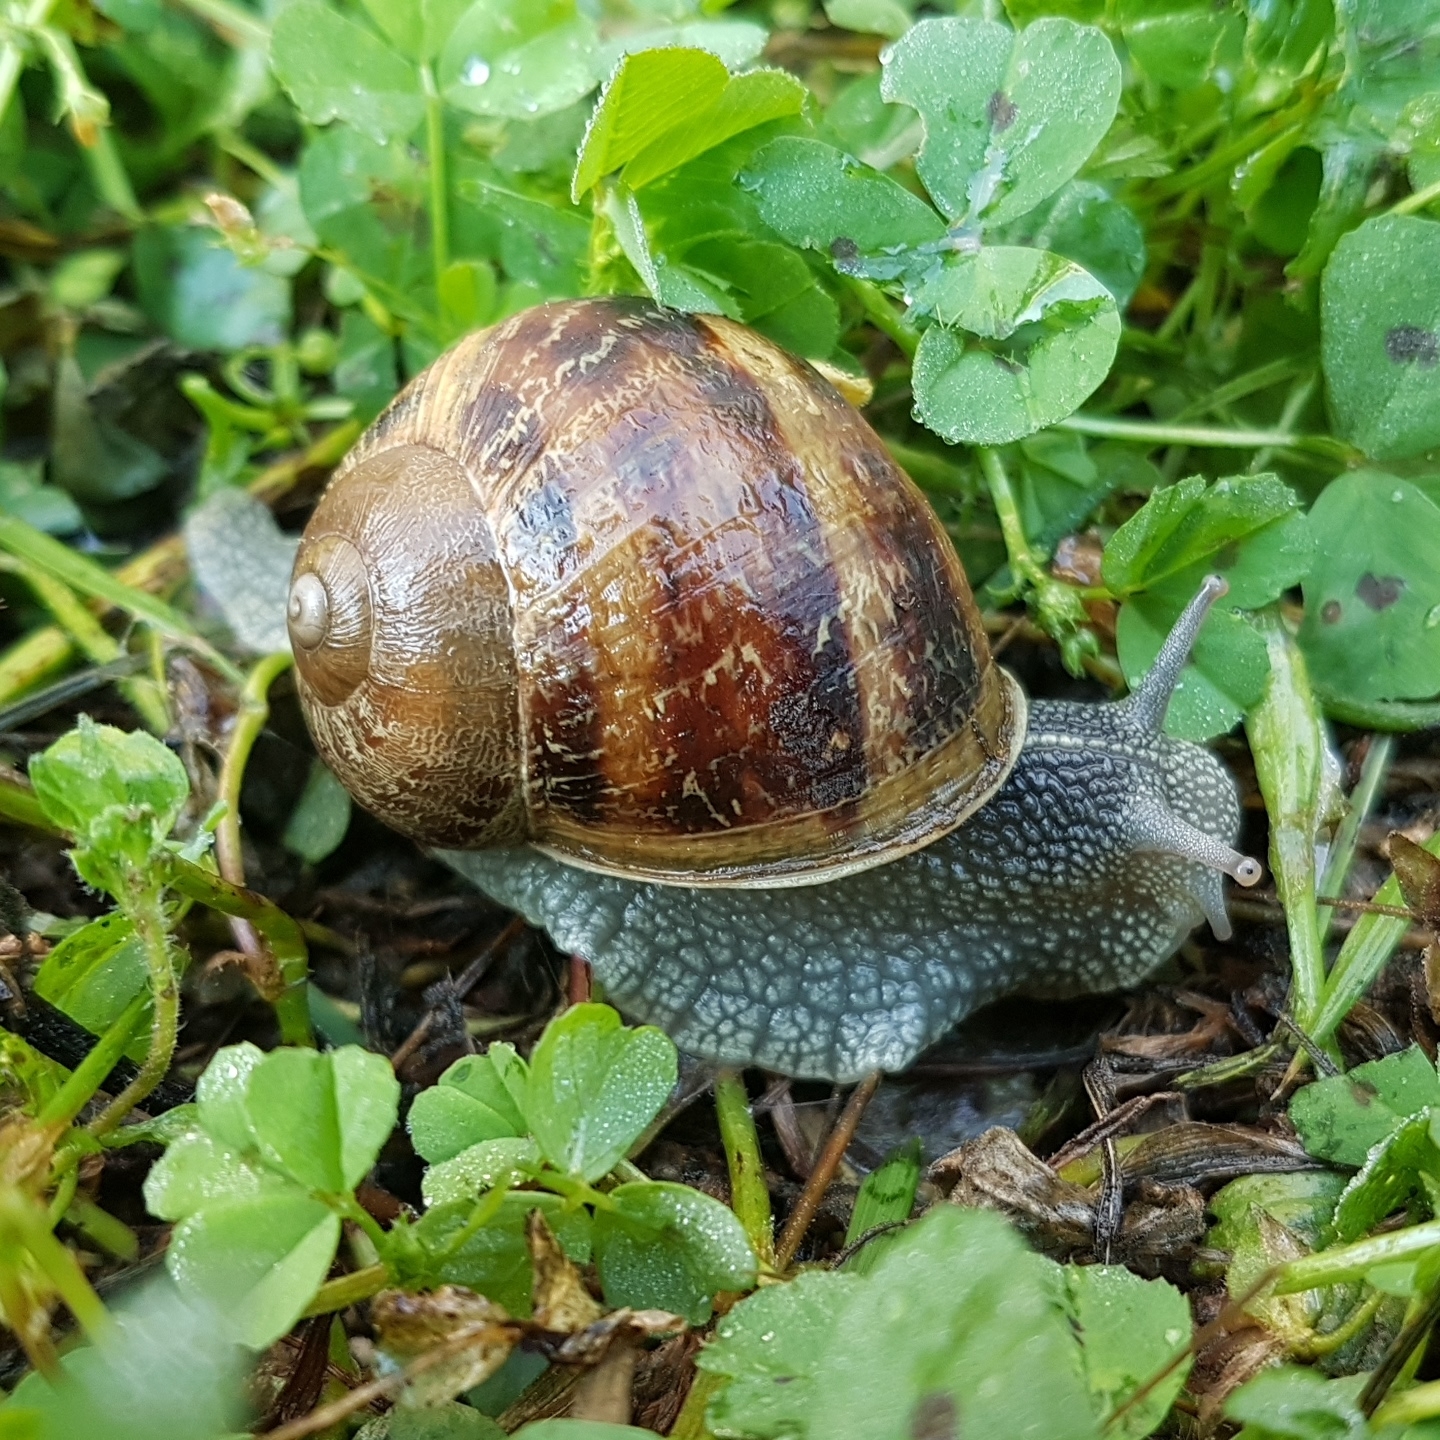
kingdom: Animalia
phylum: Mollusca
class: Gastropoda
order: Stylommatophora
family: Helicidae
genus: Cornu
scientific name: Cornu aspersum
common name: Brown garden snail
